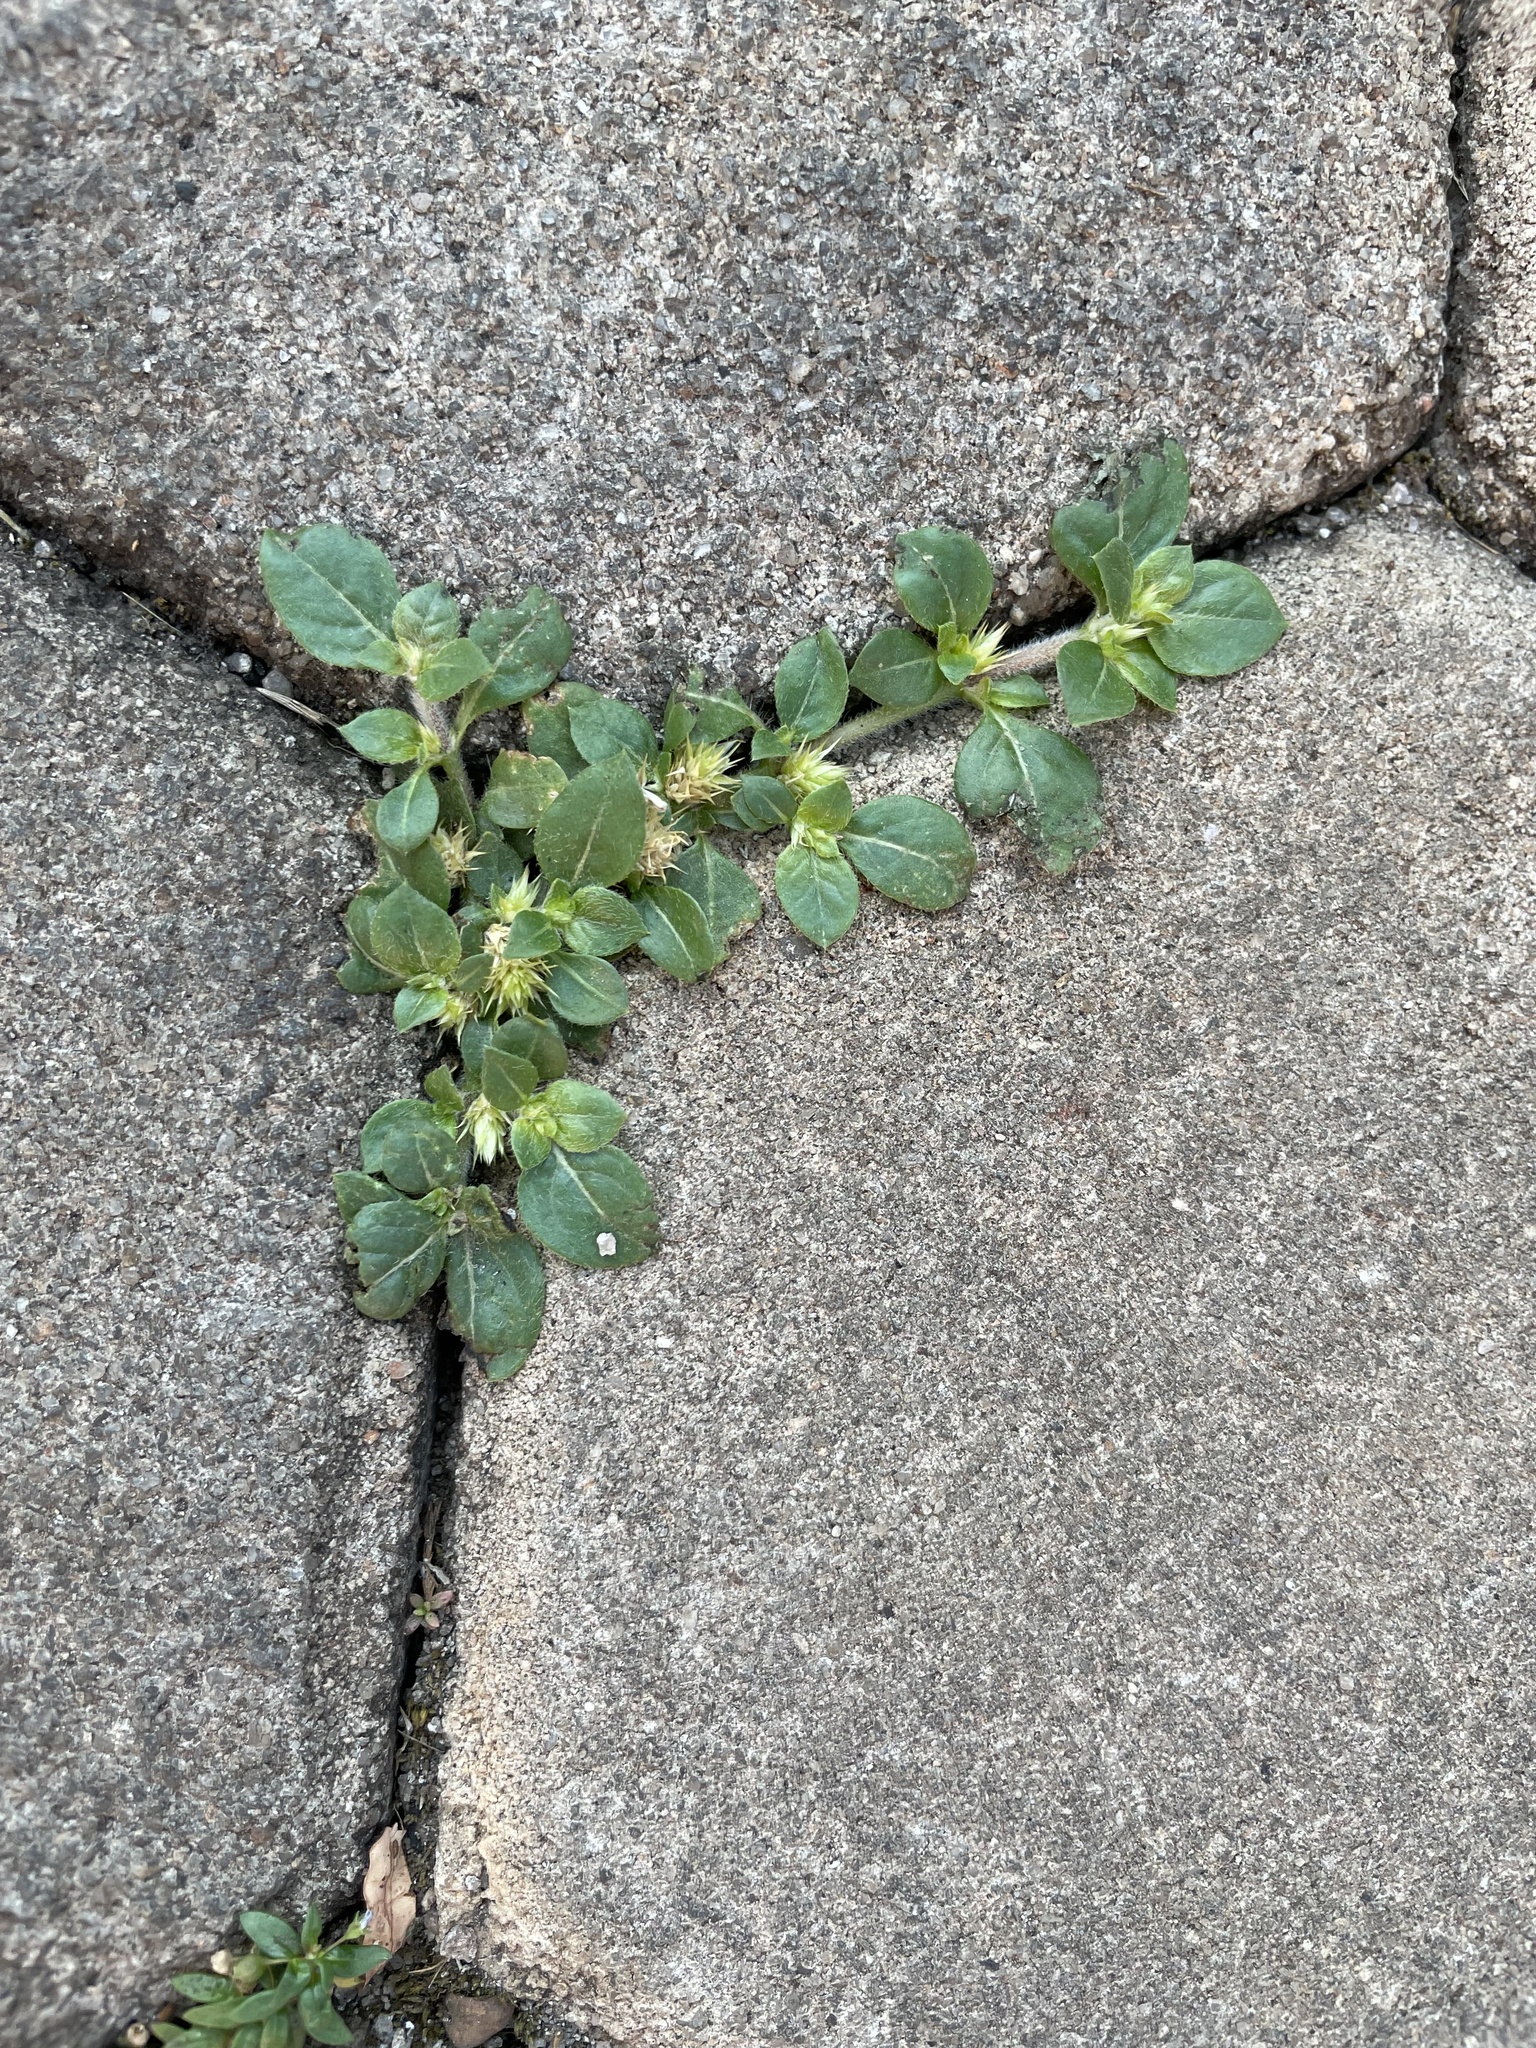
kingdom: Plantae
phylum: Tracheophyta
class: Magnoliopsida
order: Caryophyllales
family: Amaranthaceae
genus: Alternanthera
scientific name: Alternanthera pungens
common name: Khakiweed
